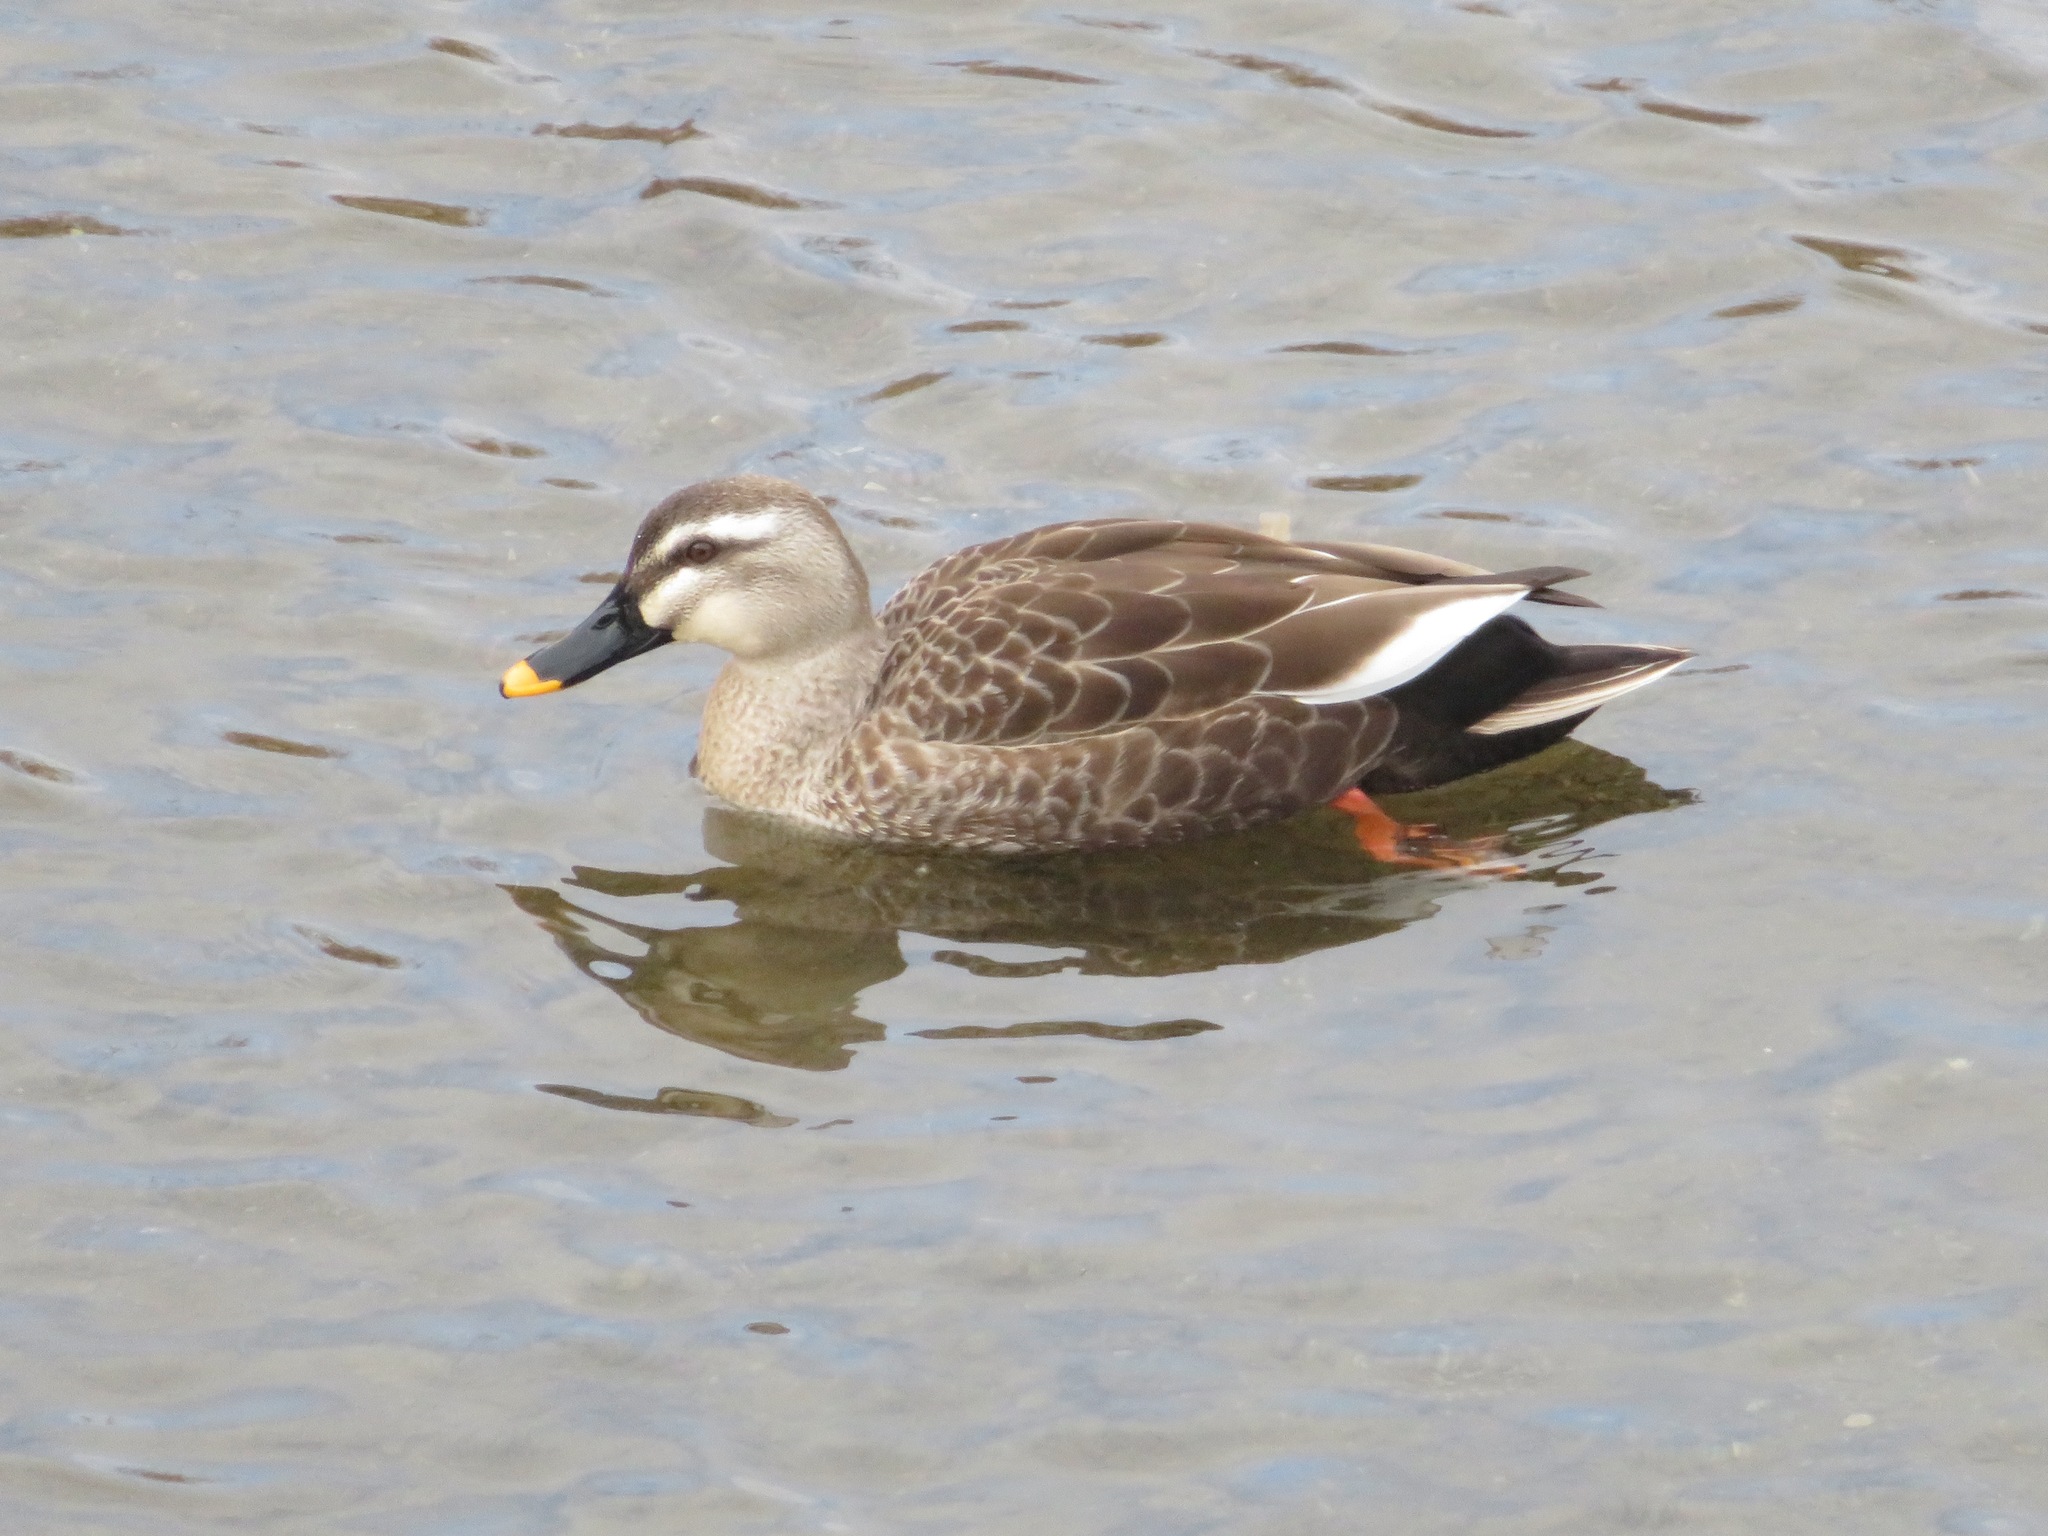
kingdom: Animalia
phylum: Chordata
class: Aves
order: Anseriformes
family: Anatidae
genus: Anas
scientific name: Anas zonorhyncha
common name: Eastern spot-billed duck
